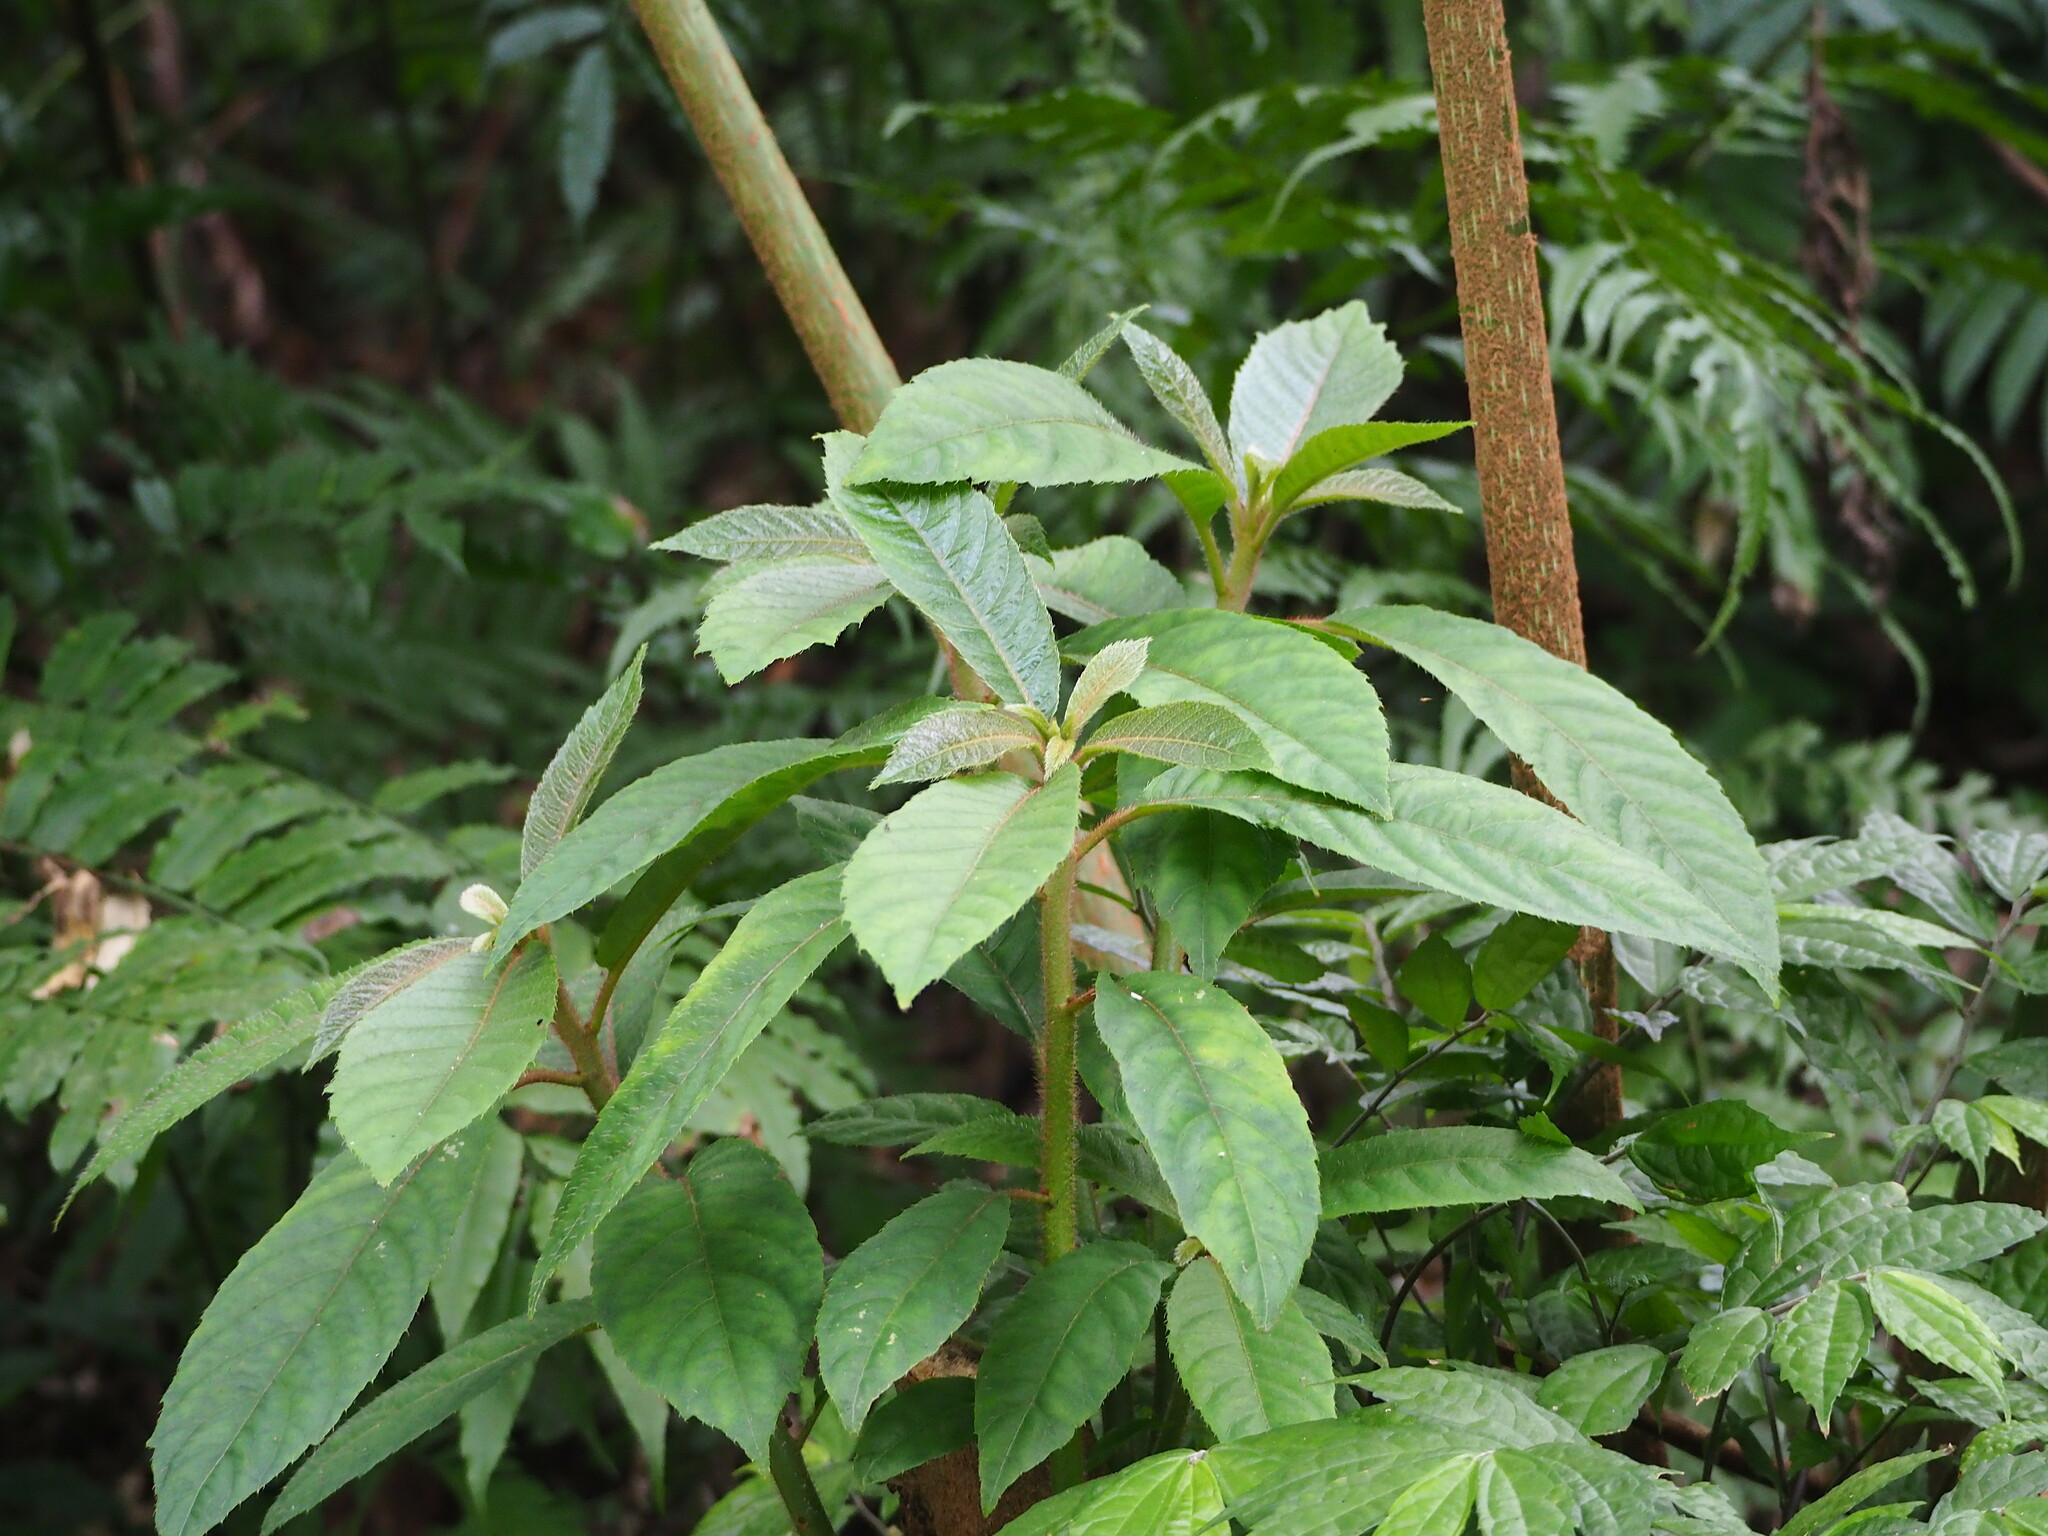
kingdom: Plantae
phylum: Tracheophyta
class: Magnoliopsida
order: Ericales
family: Actinidiaceae
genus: Saurauia
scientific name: Saurauia tristyla
